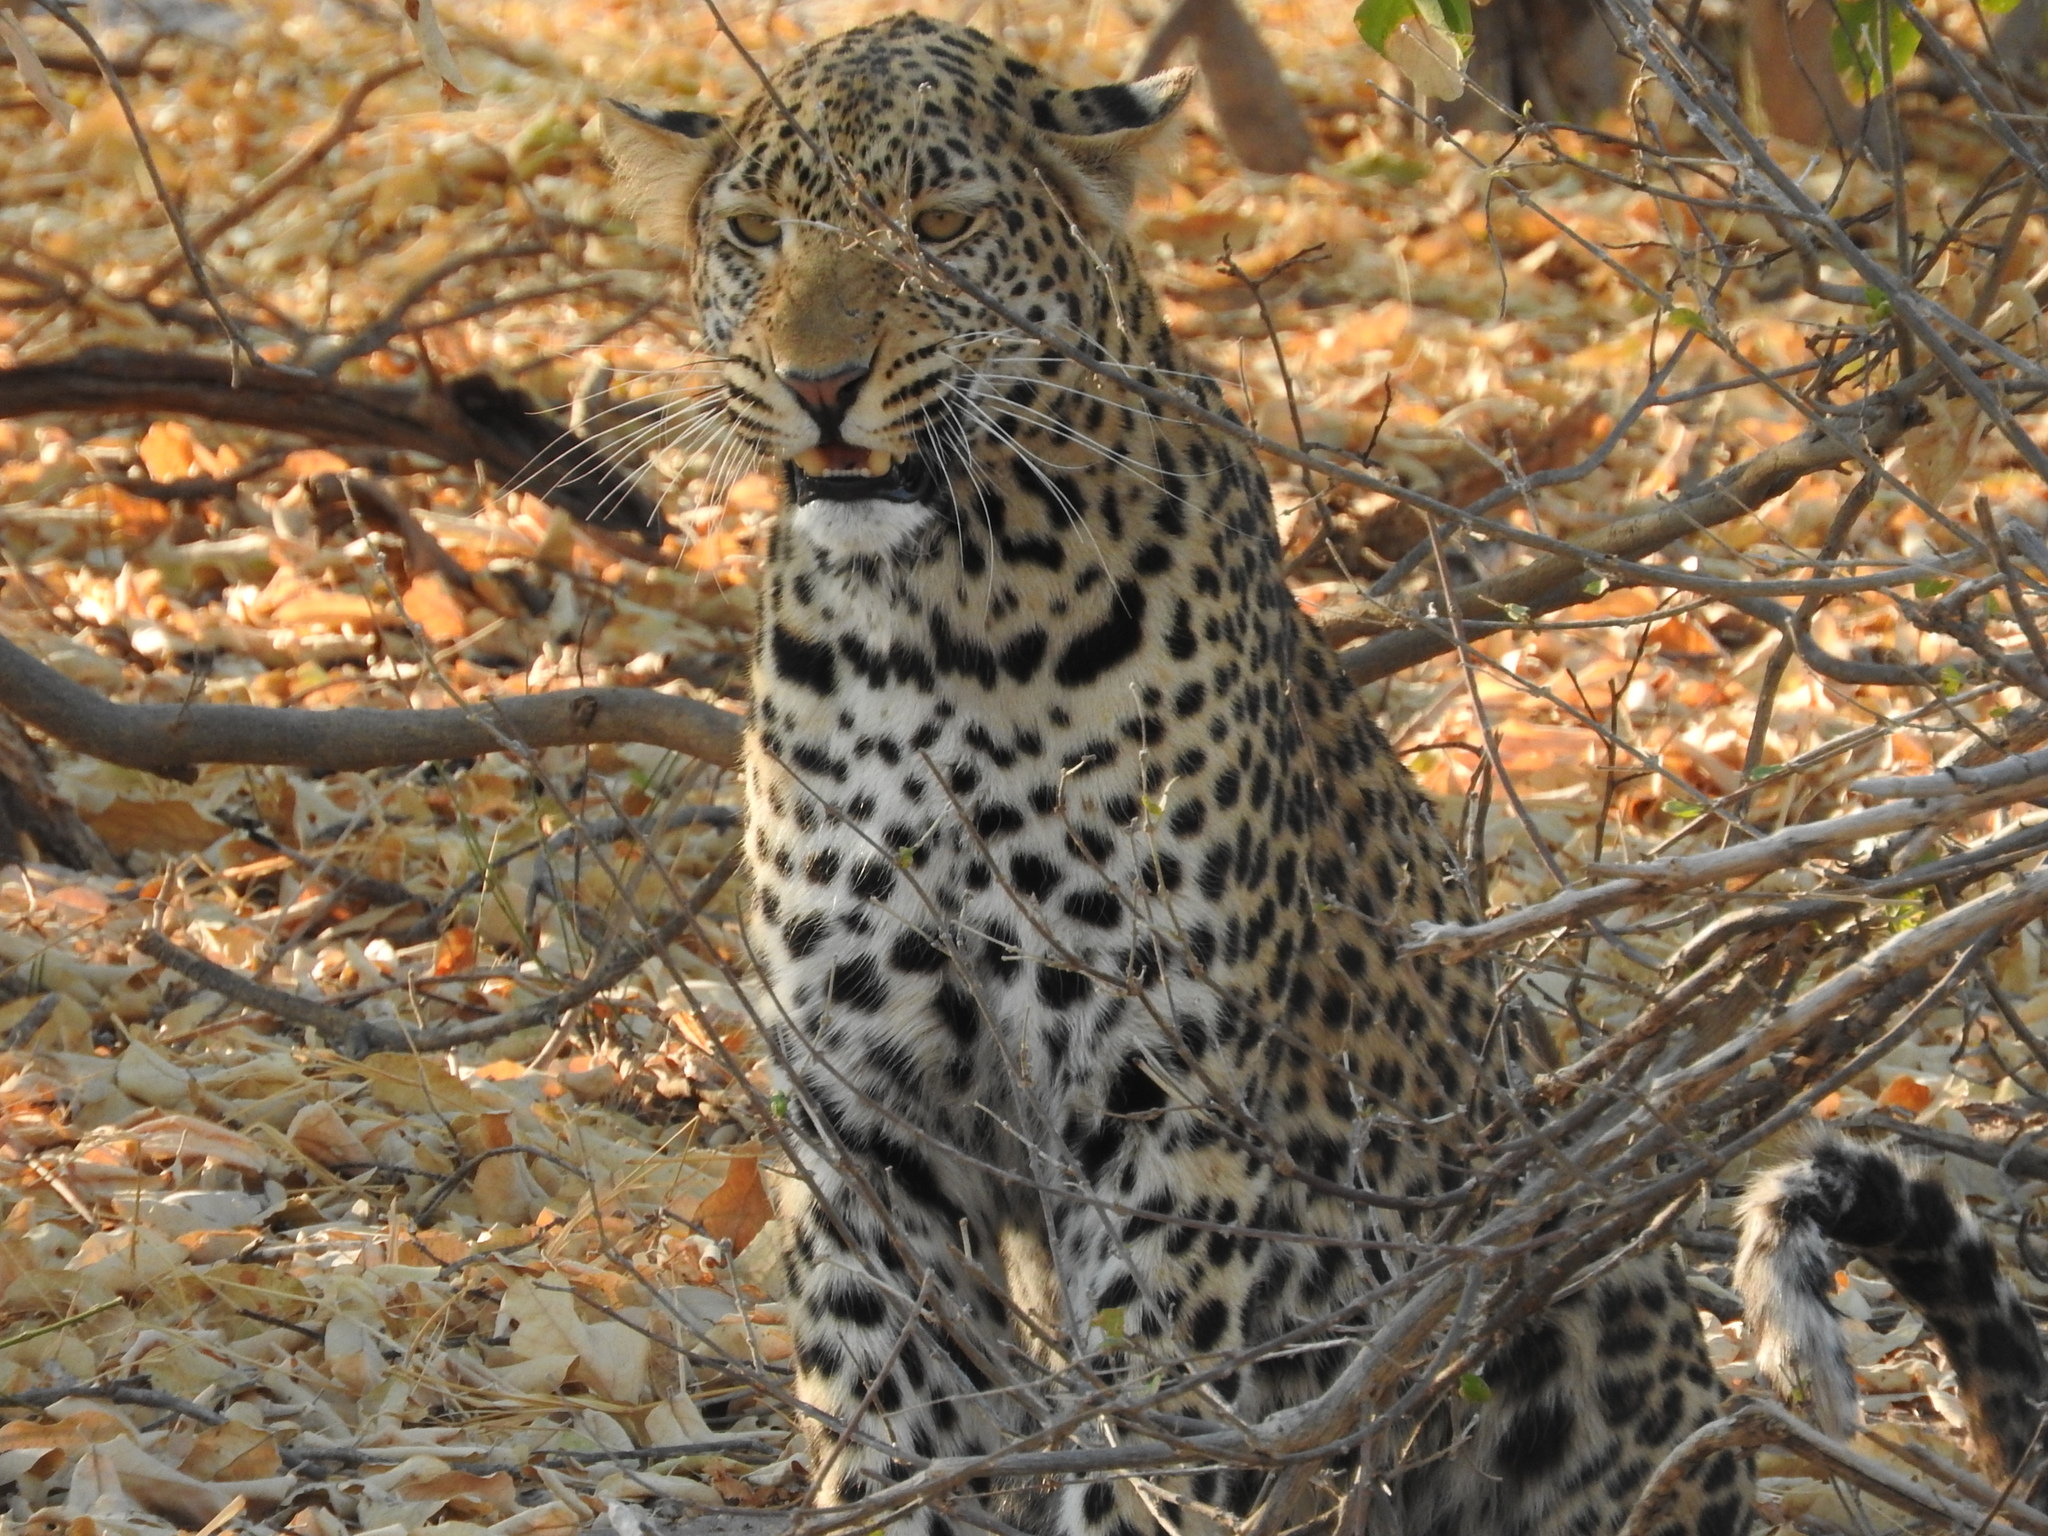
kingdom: Animalia
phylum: Chordata
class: Mammalia
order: Carnivora
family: Felidae
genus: Panthera
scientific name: Panthera pardus
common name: Leopard
